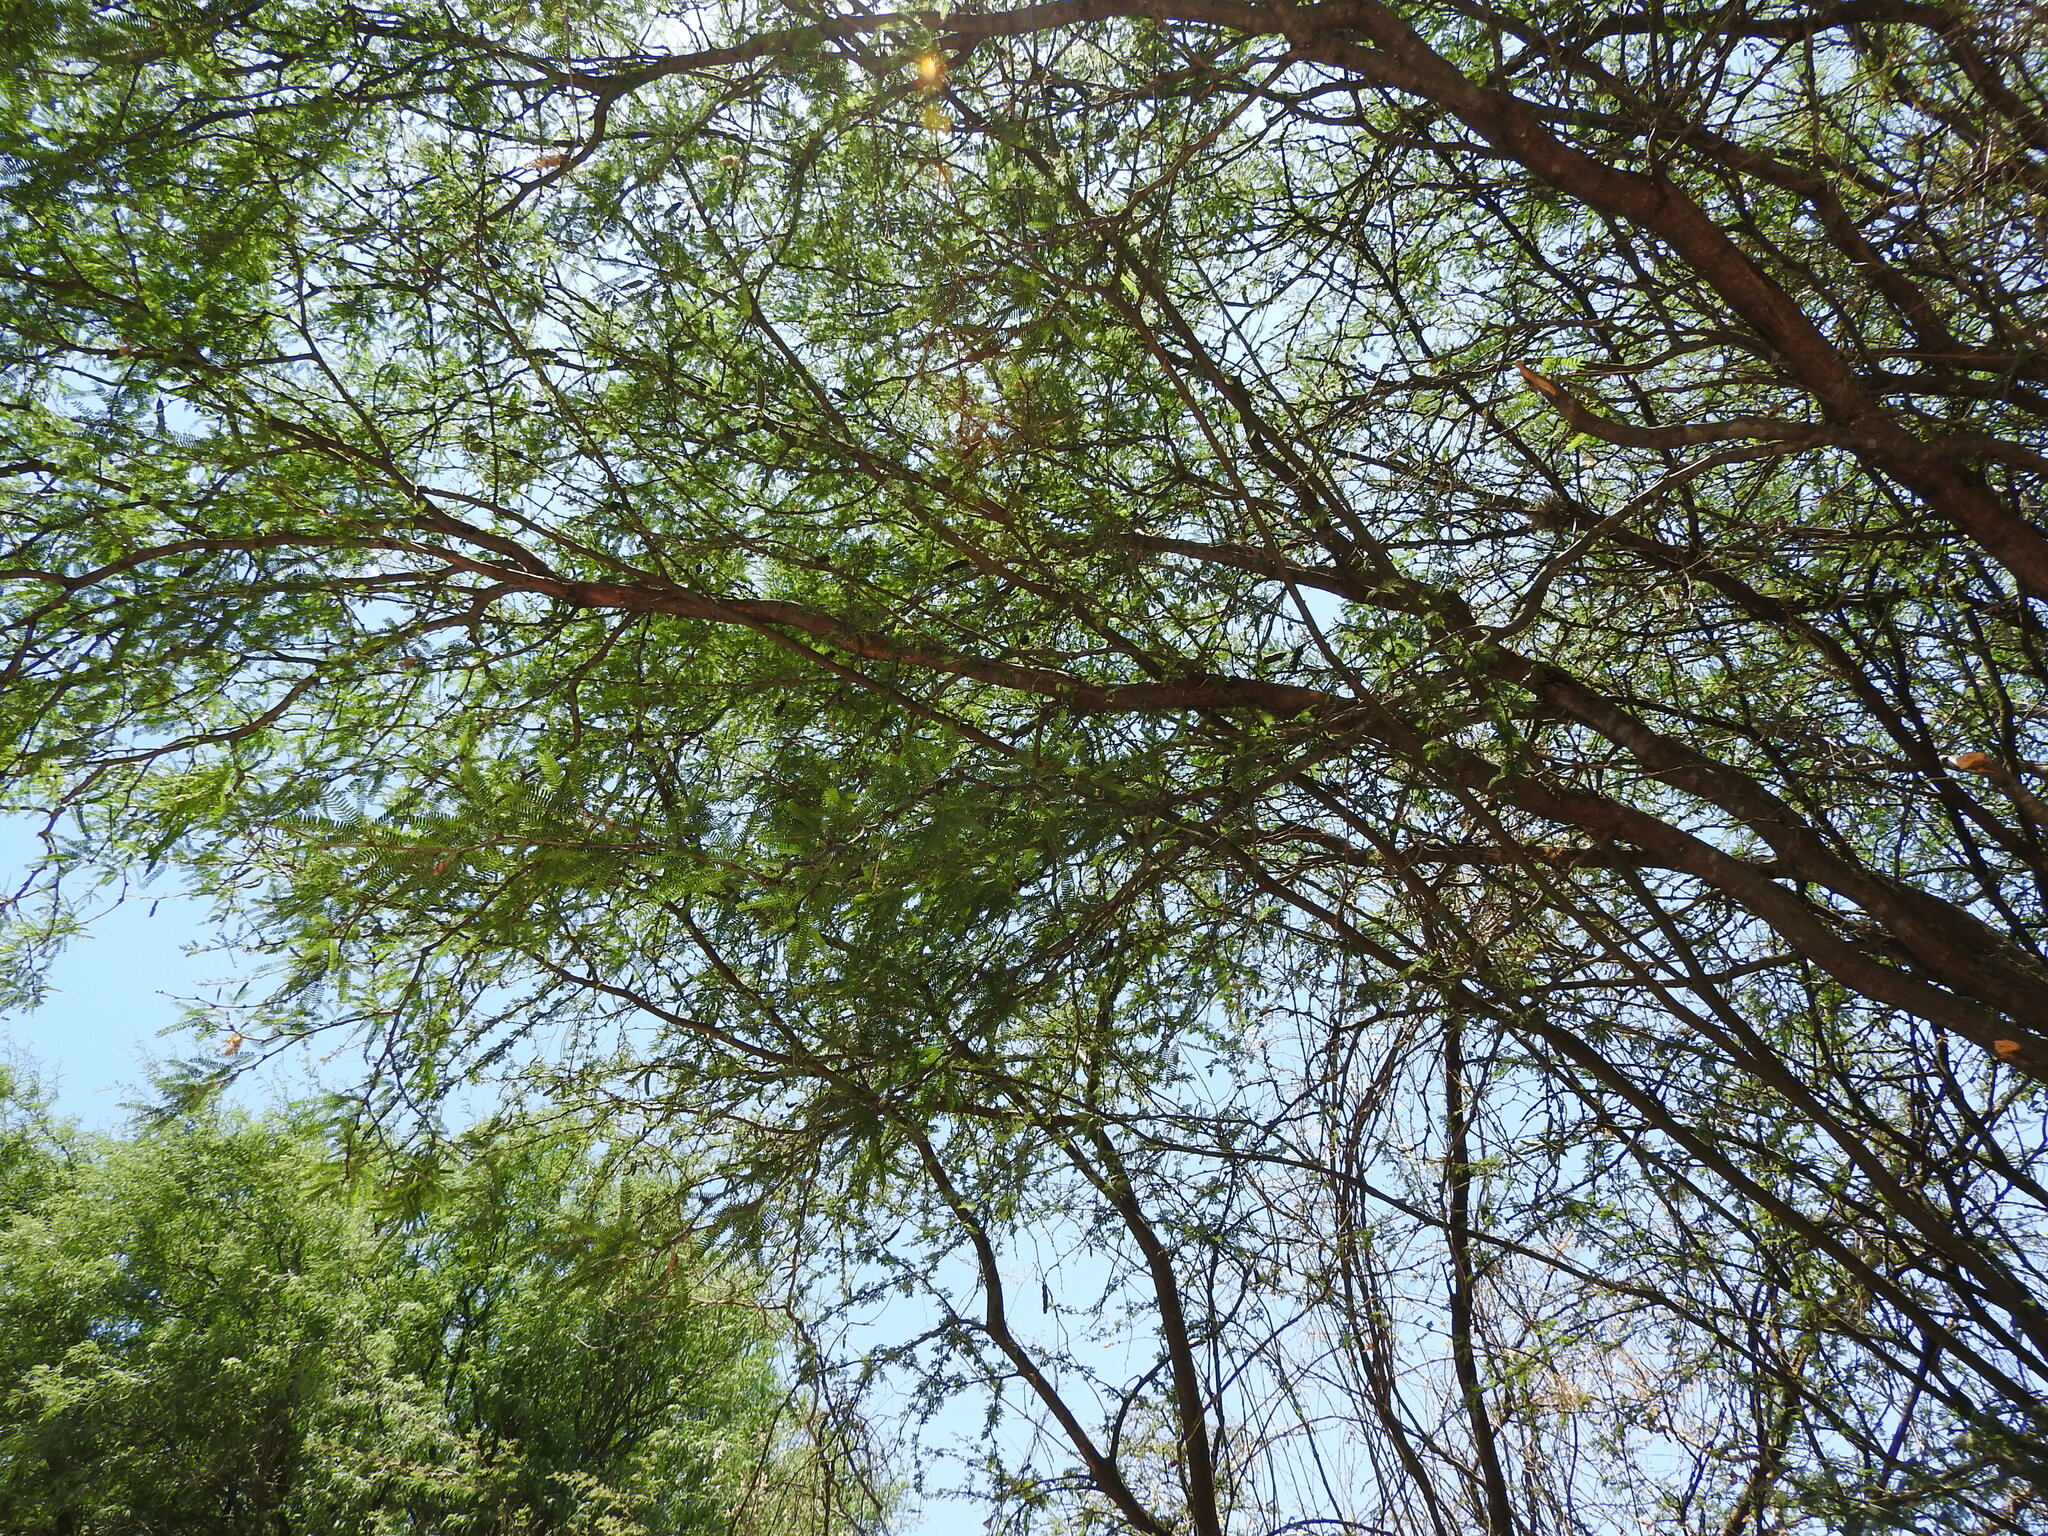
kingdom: Plantae
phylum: Tracheophyta
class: Magnoliopsida
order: Fabales
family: Fabaceae
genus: Prosopis
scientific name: Prosopis laevigata
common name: Smooth mesquite
